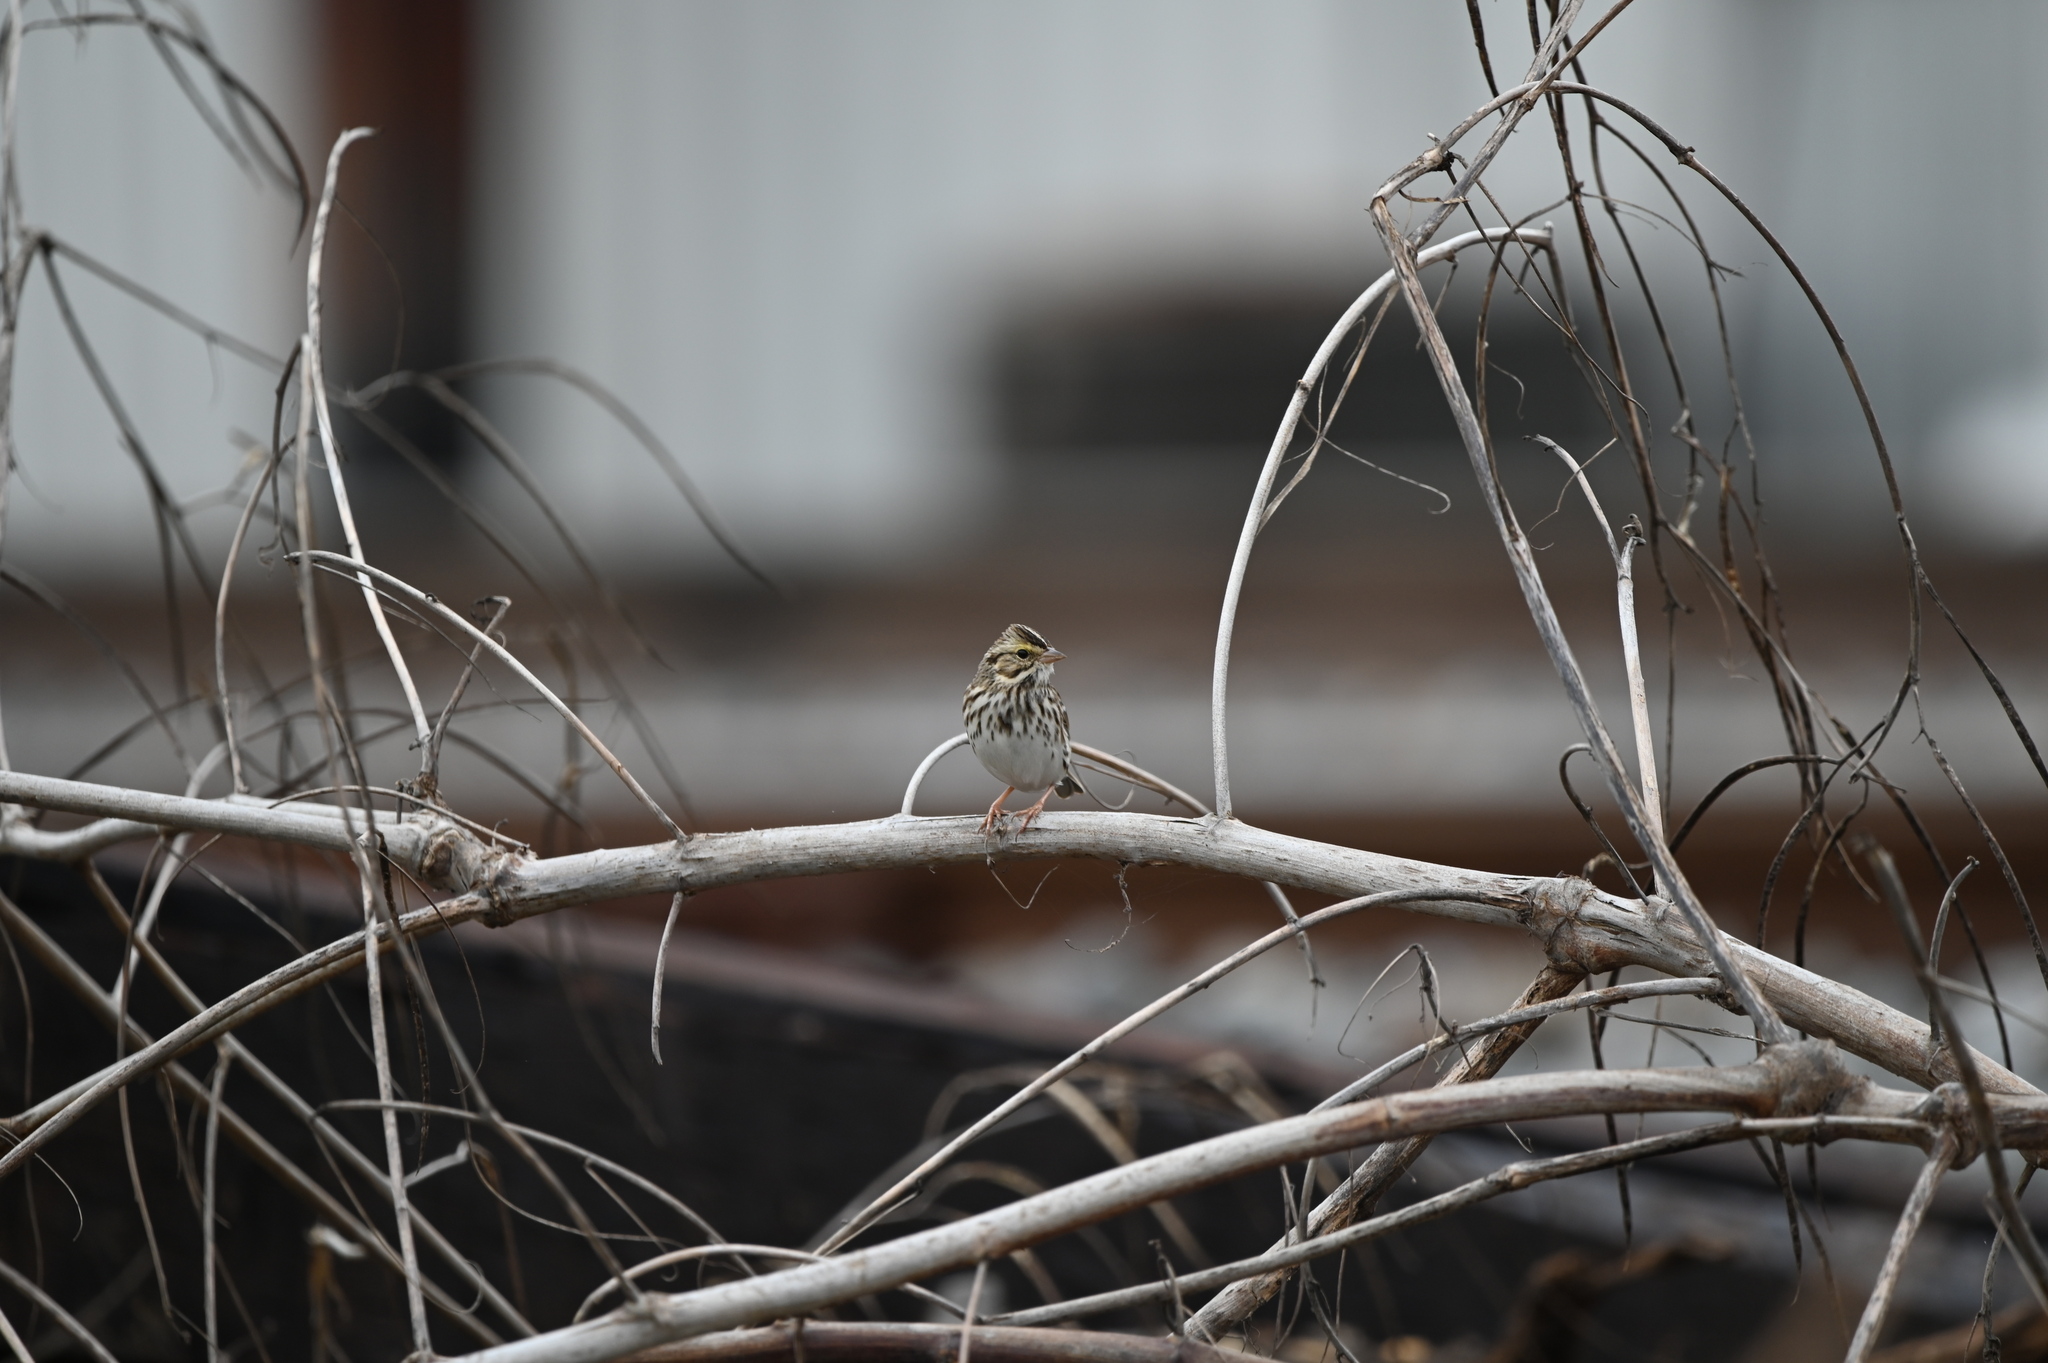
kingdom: Animalia
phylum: Chordata
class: Aves
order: Passeriformes
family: Passerellidae
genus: Passerculus
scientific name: Passerculus sandwichensis
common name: Savannah sparrow
